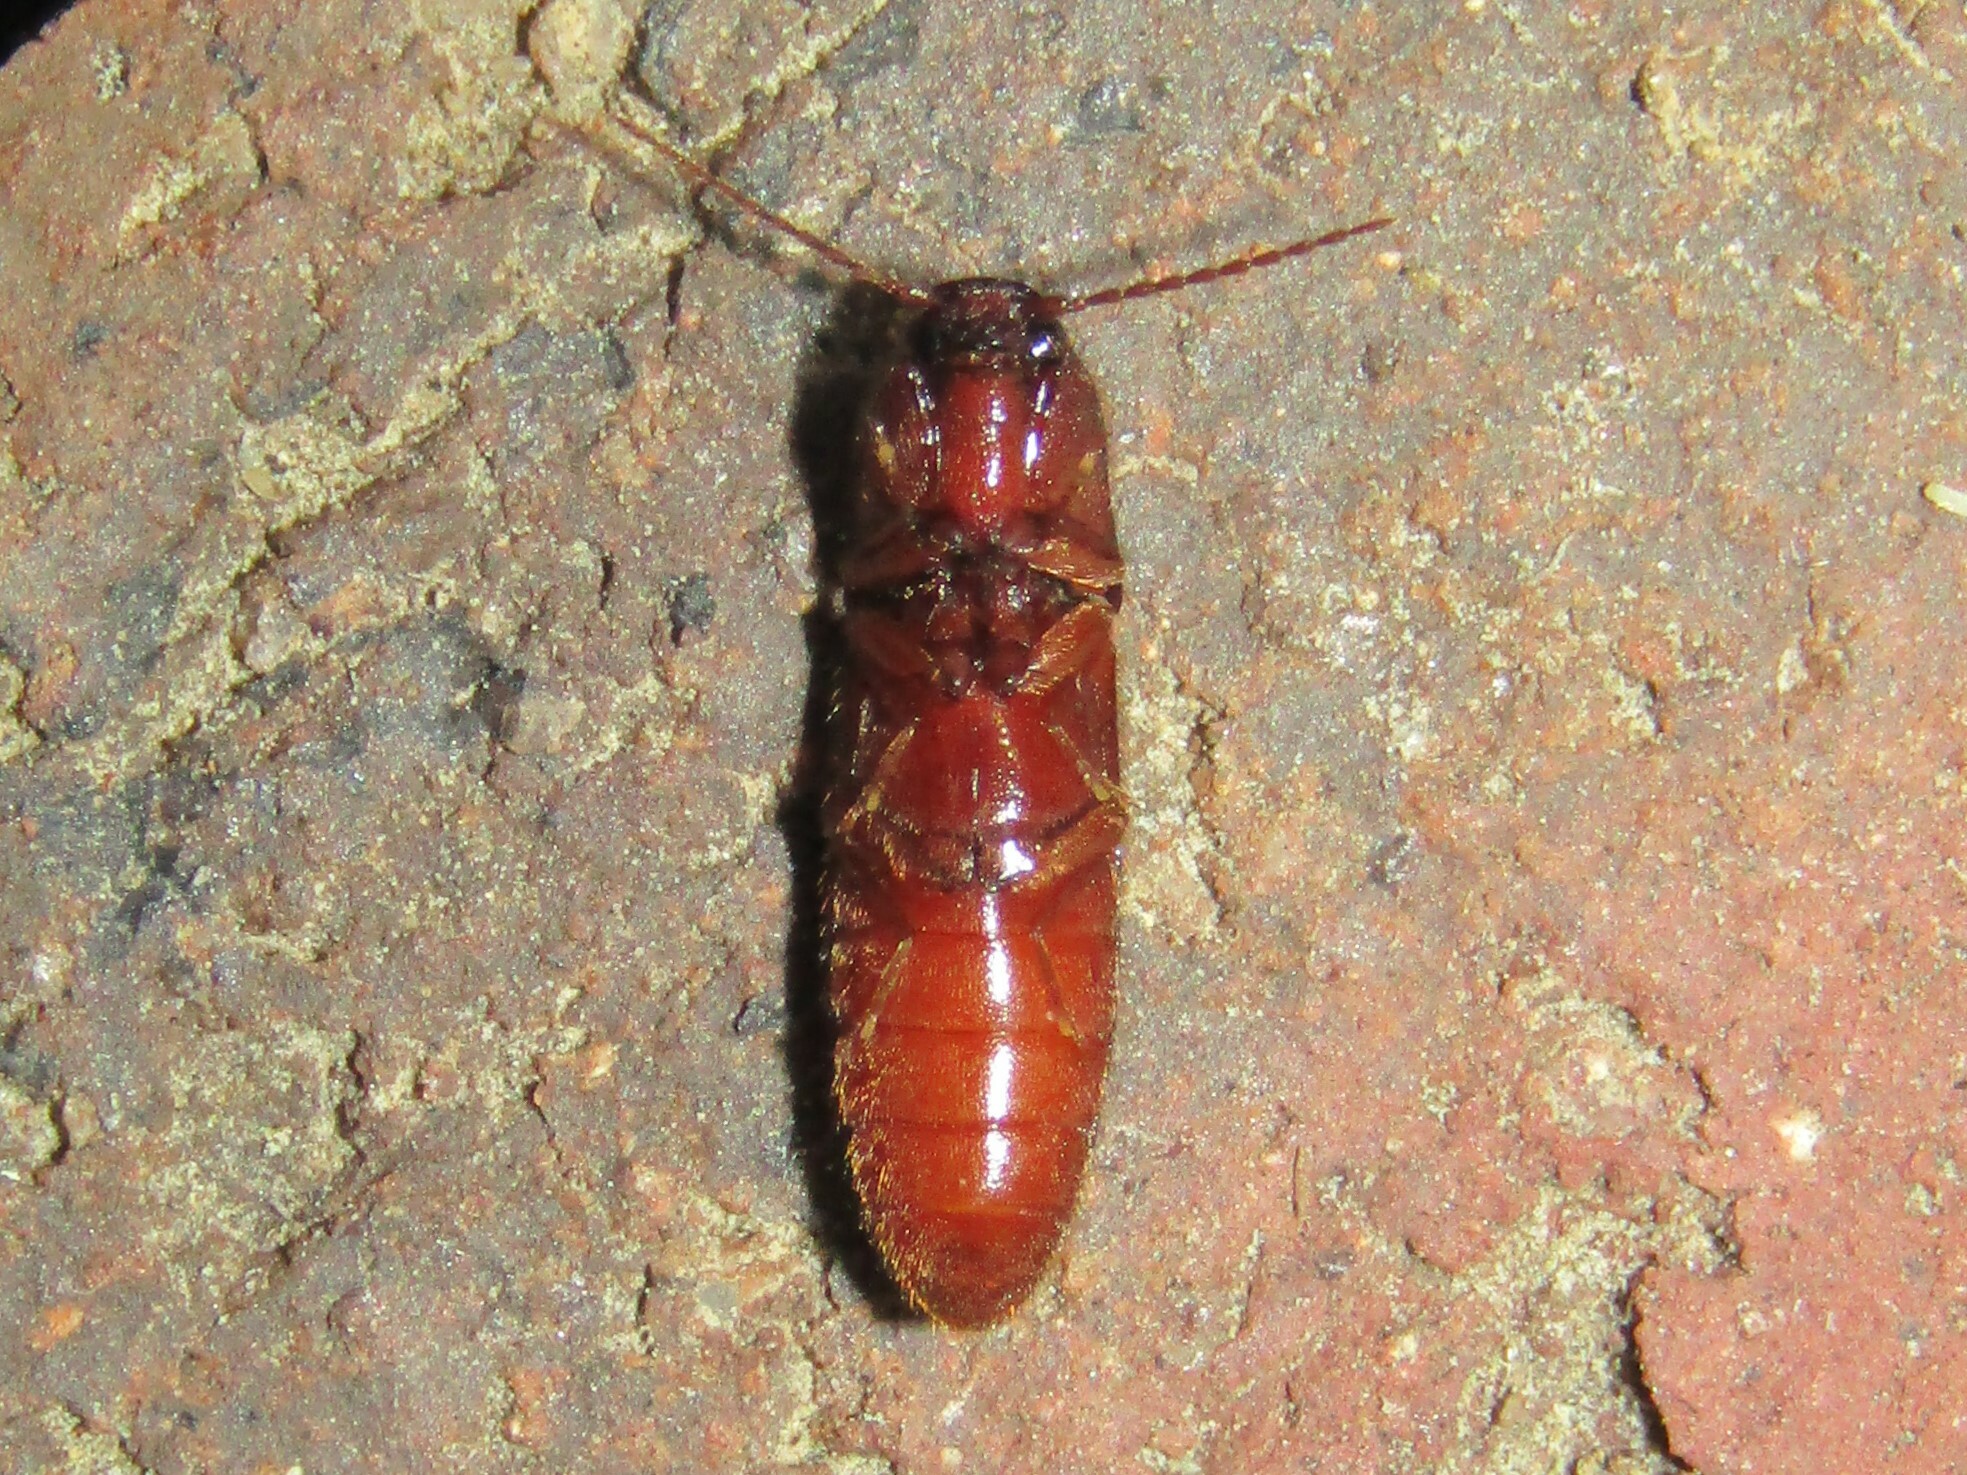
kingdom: Animalia
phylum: Arthropoda
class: Insecta
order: Coleoptera
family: Elateridae
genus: Dipropus
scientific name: Dipropus
